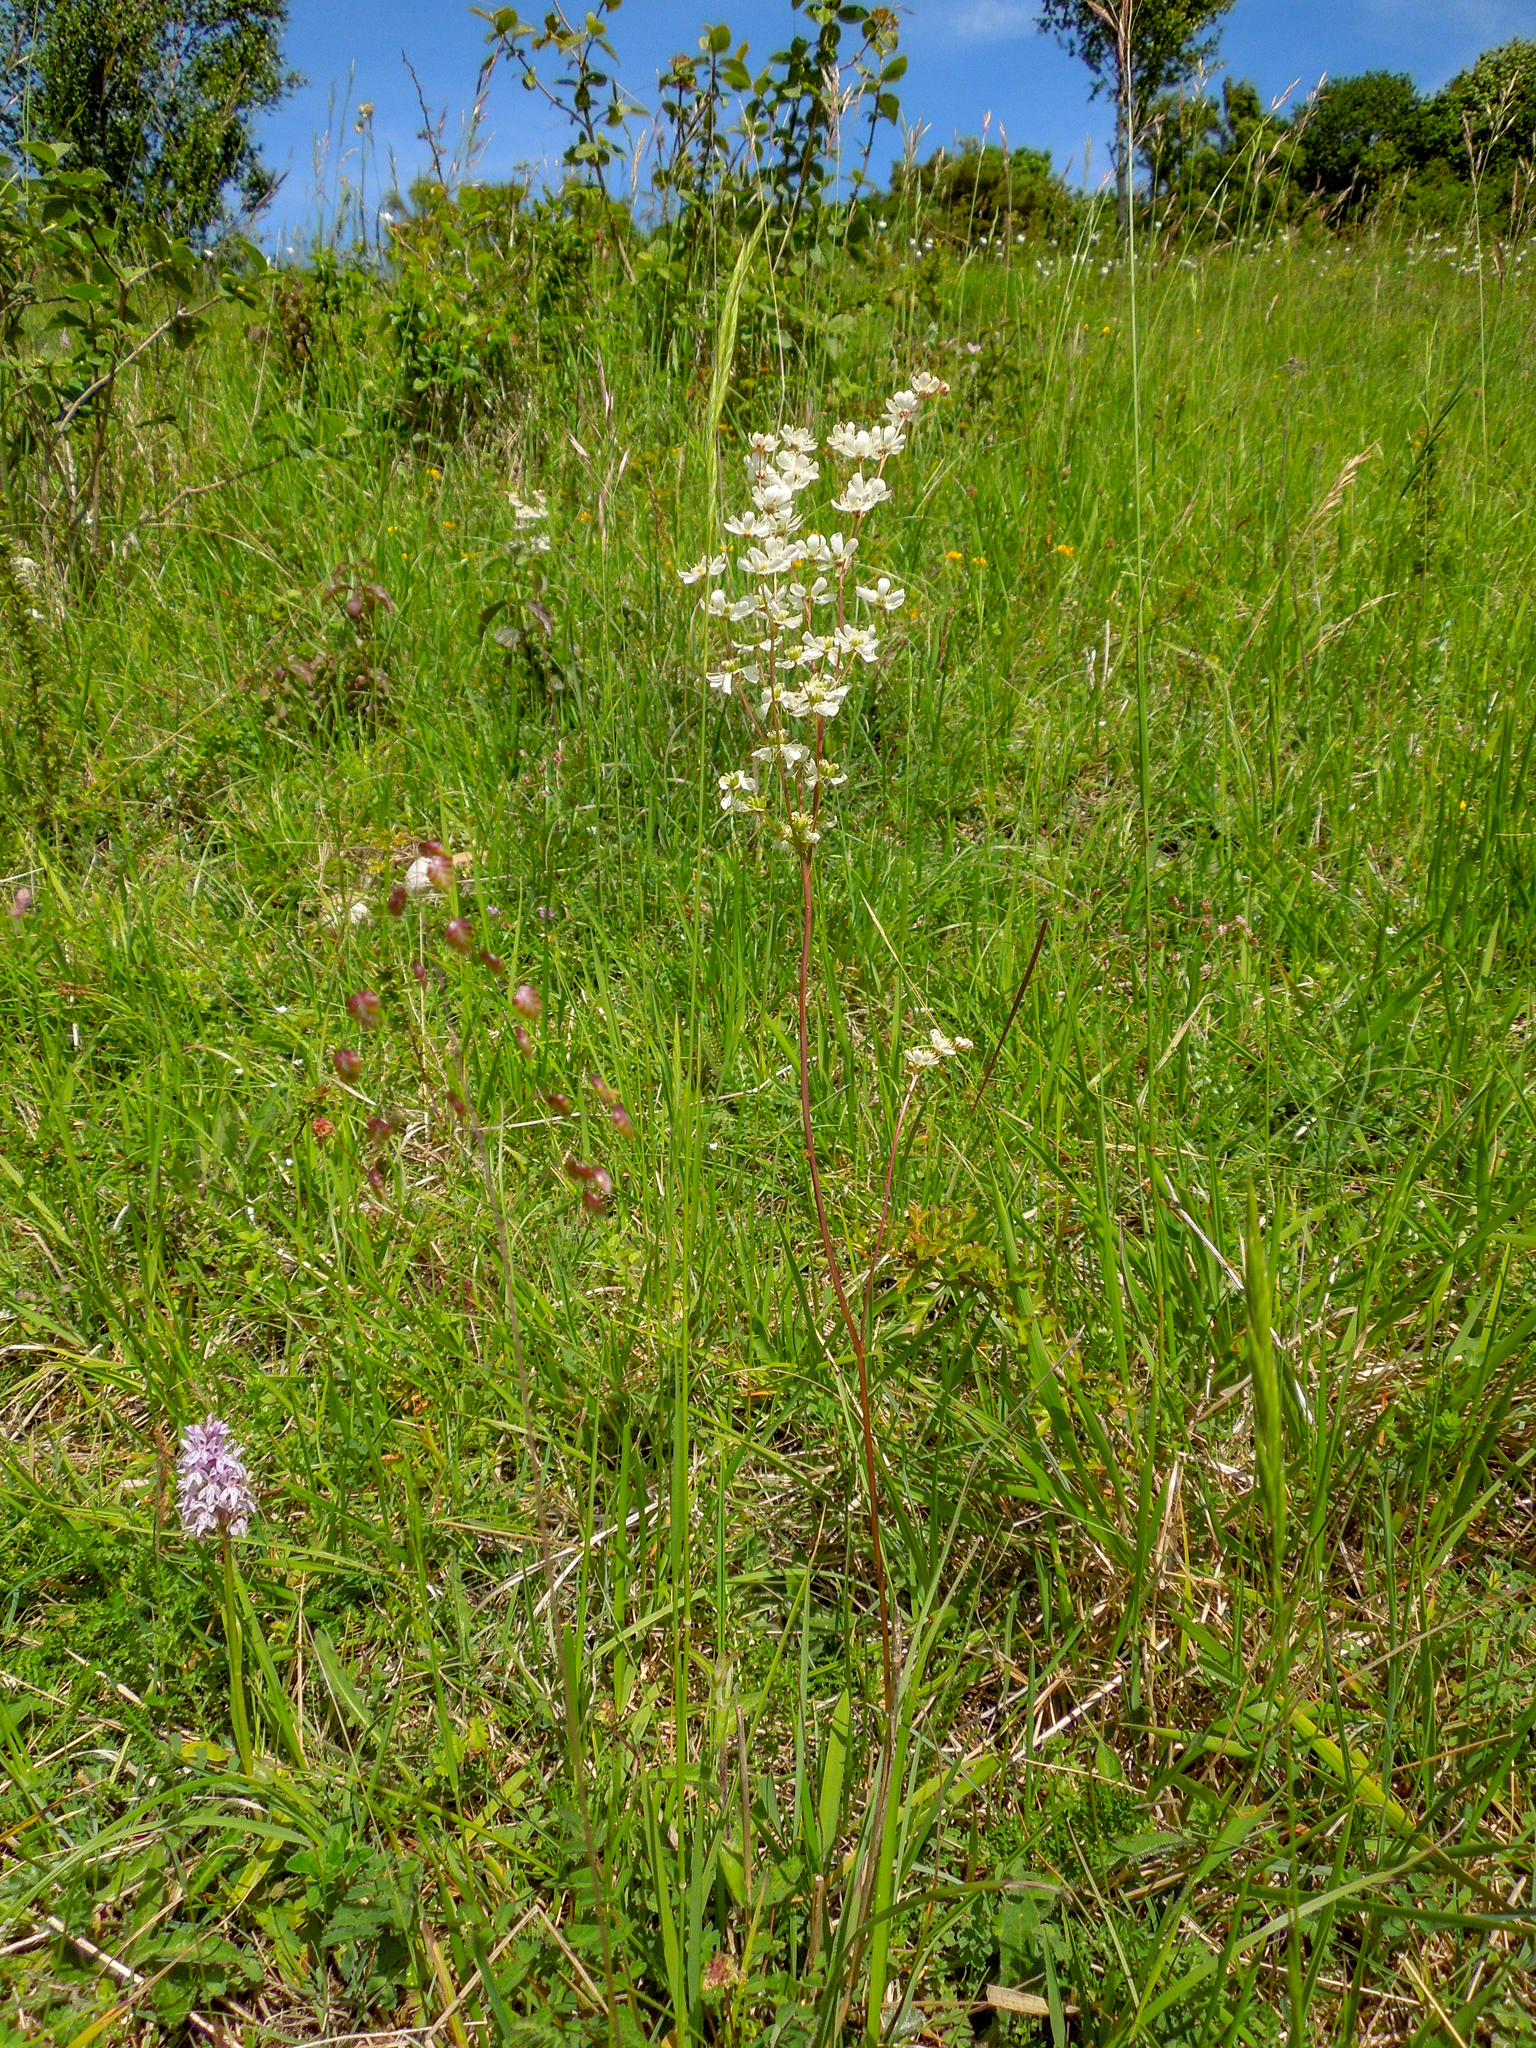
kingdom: Plantae
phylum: Tracheophyta
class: Magnoliopsida
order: Rosales
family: Rosaceae
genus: Filipendula
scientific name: Filipendula vulgaris
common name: Dropwort
